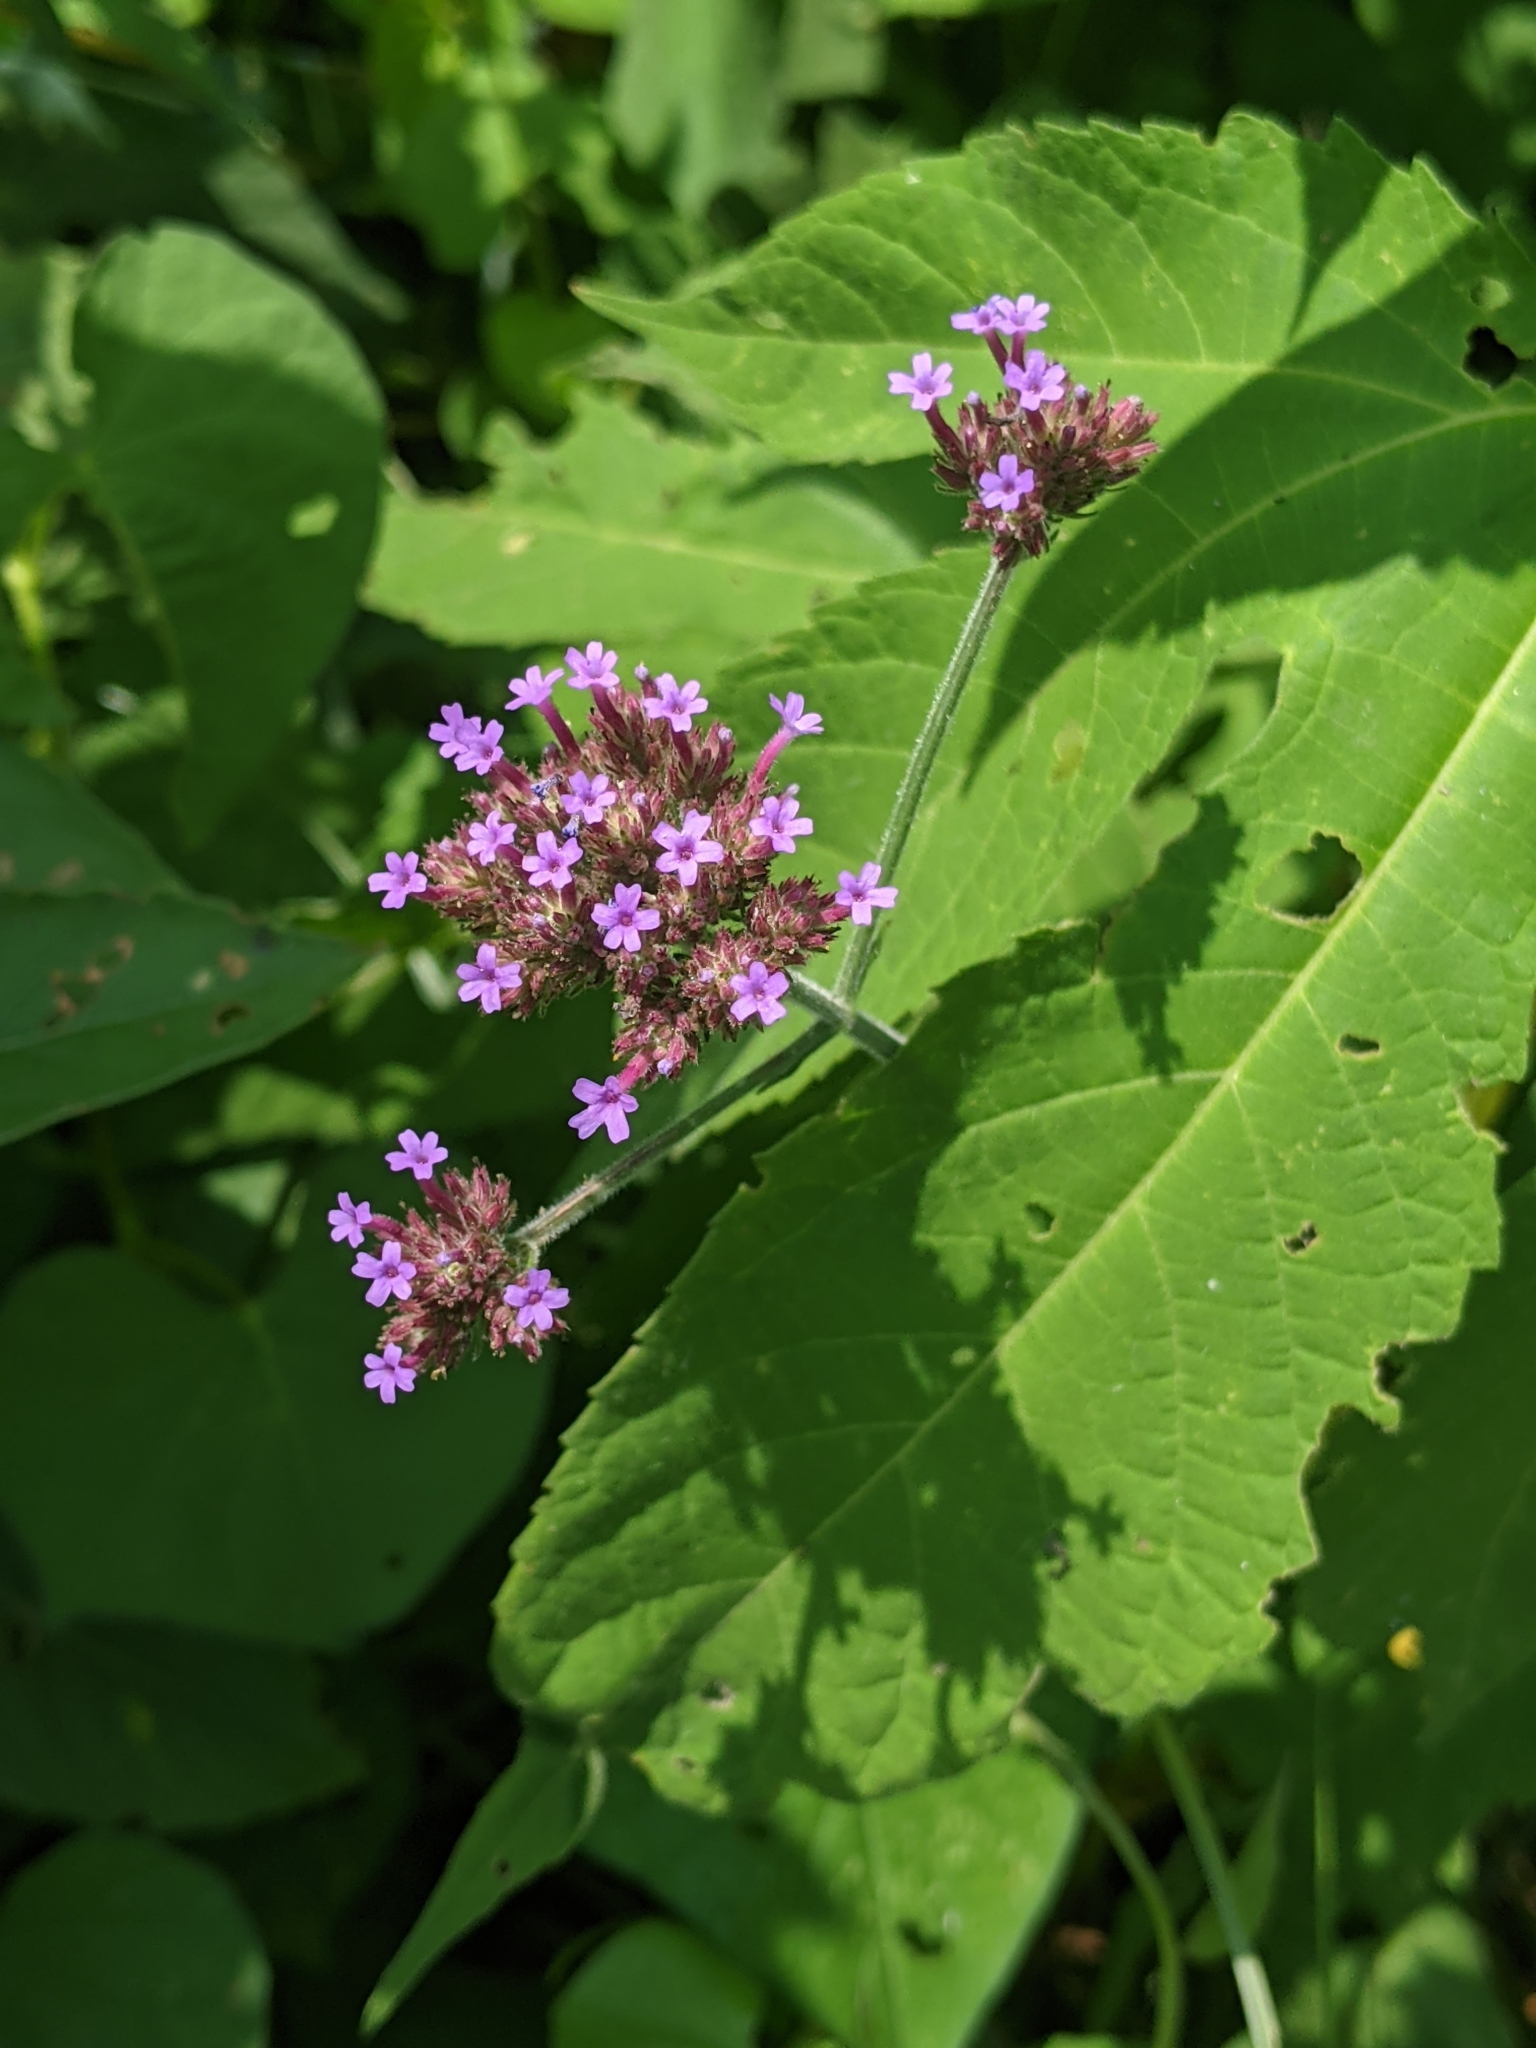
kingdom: Plantae
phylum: Tracheophyta
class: Magnoliopsida
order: Lamiales
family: Verbenaceae
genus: Verbena
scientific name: Verbena bonariensis
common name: Purpletop vervain
